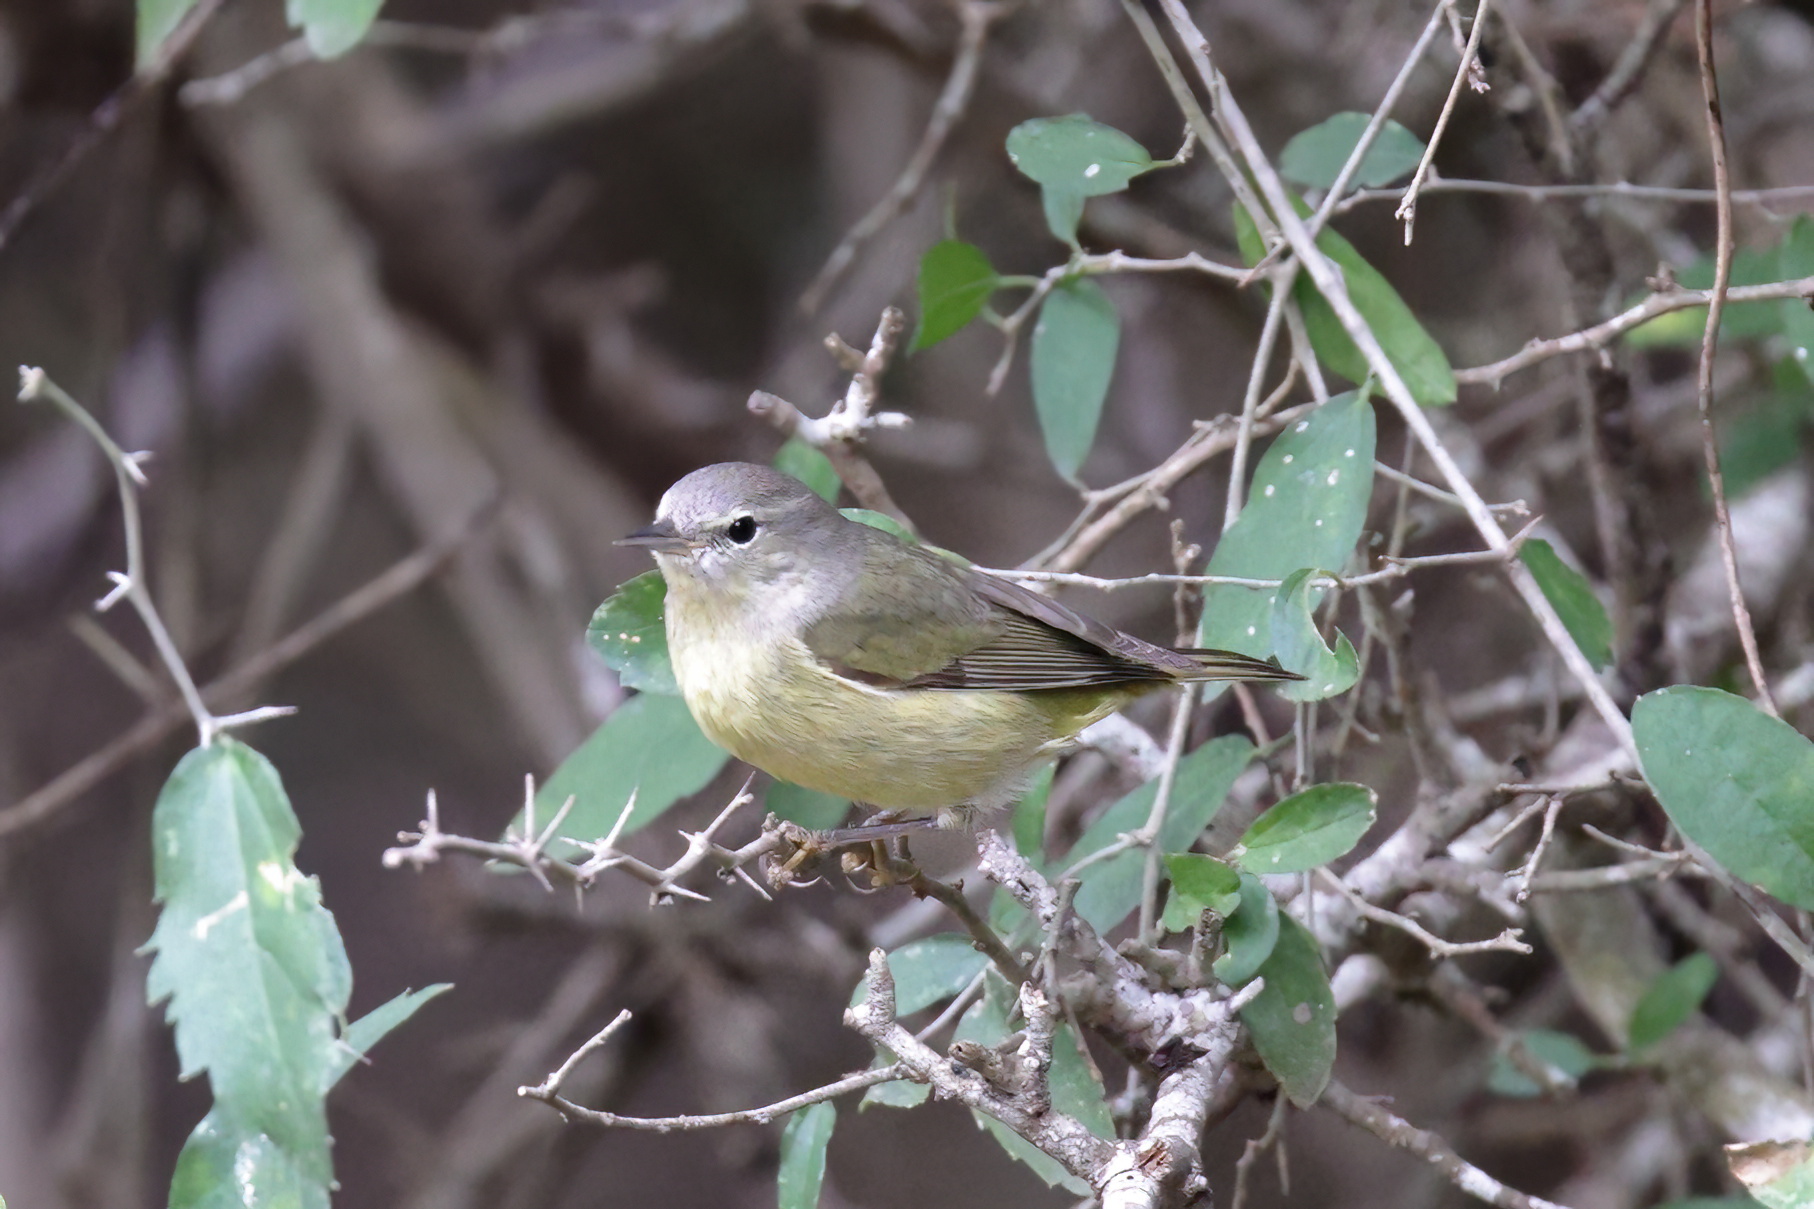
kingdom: Animalia
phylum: Chordata
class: Aves
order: Passeriformes
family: Parulidae
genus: Leiothlypis
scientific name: Leiothlypis celata
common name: Orange-crowned warbler
